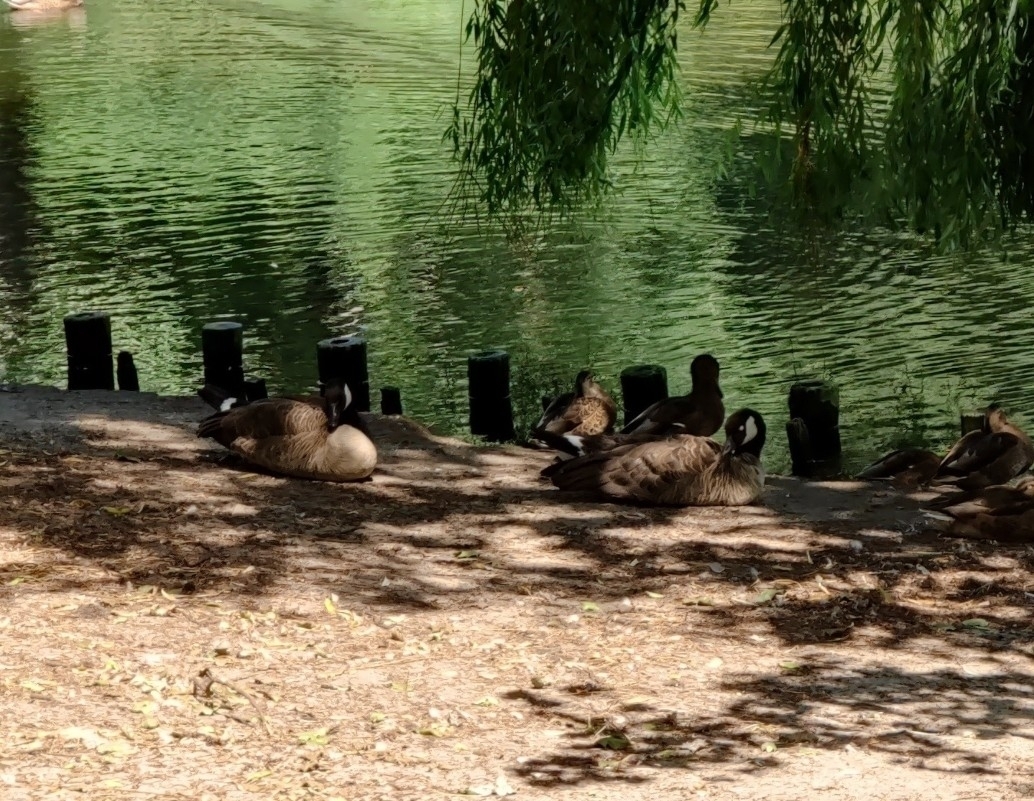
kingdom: Animalia
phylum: Chordata
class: Aves
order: Anseriformes
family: Anatidae
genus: Branta
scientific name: Branta canadensis
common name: Canada goose
